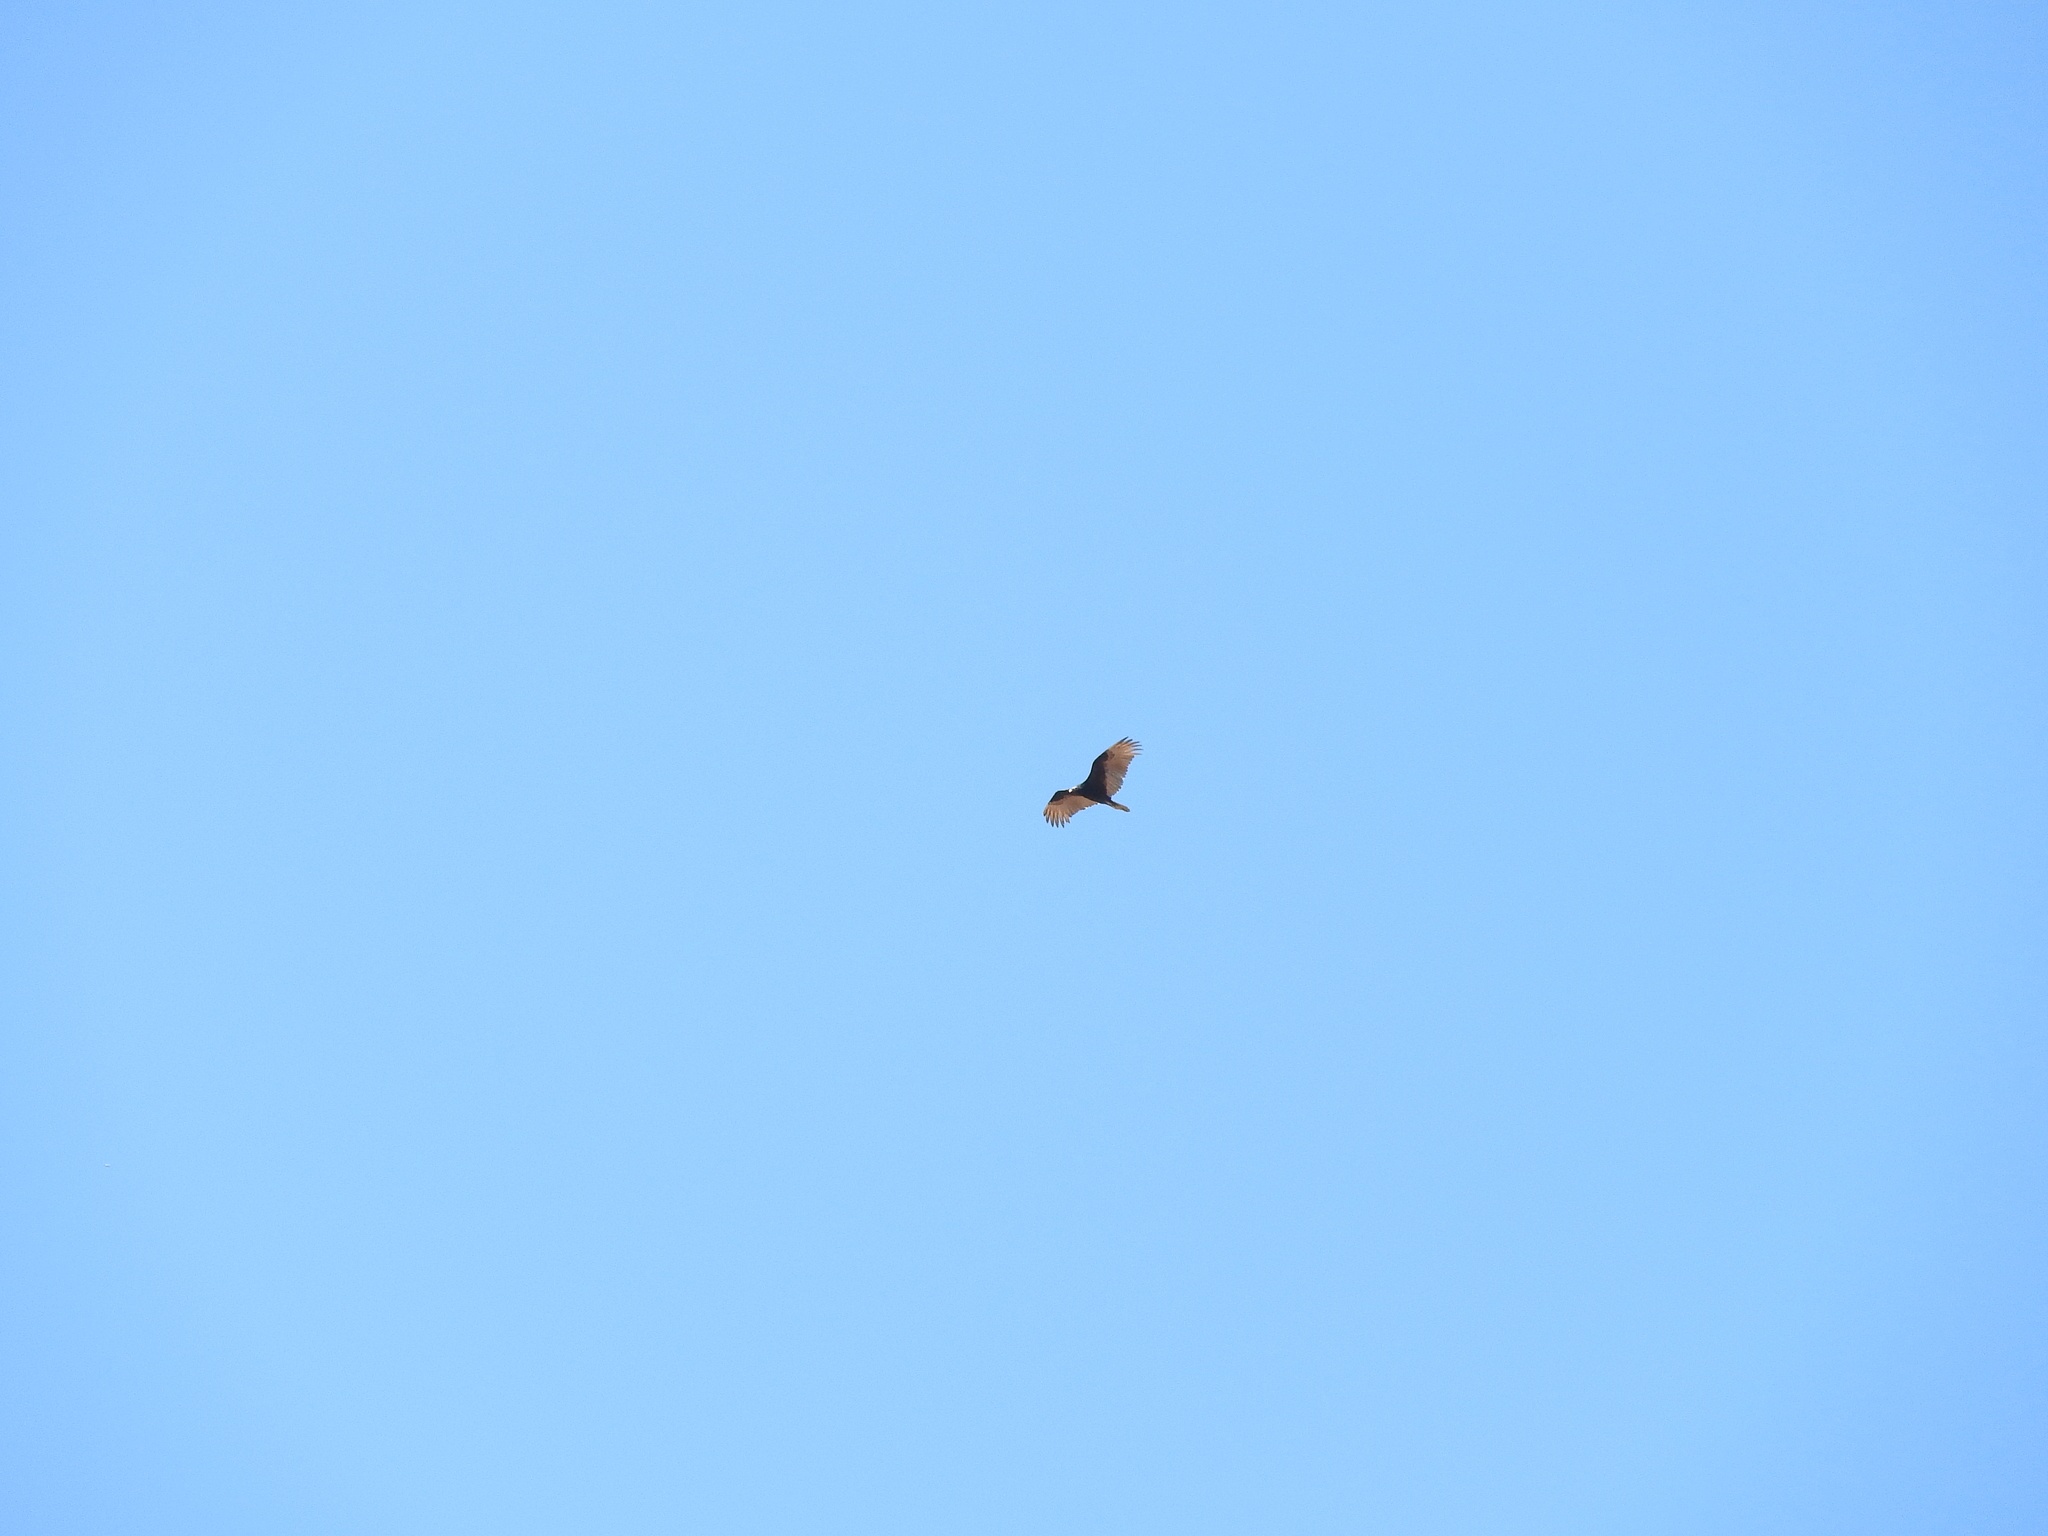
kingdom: Animalia
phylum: Chordata
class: Aves
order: Accipitriformes
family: Cathartidae
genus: Cathartes
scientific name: Cathartes aura
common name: Turkey vulture
